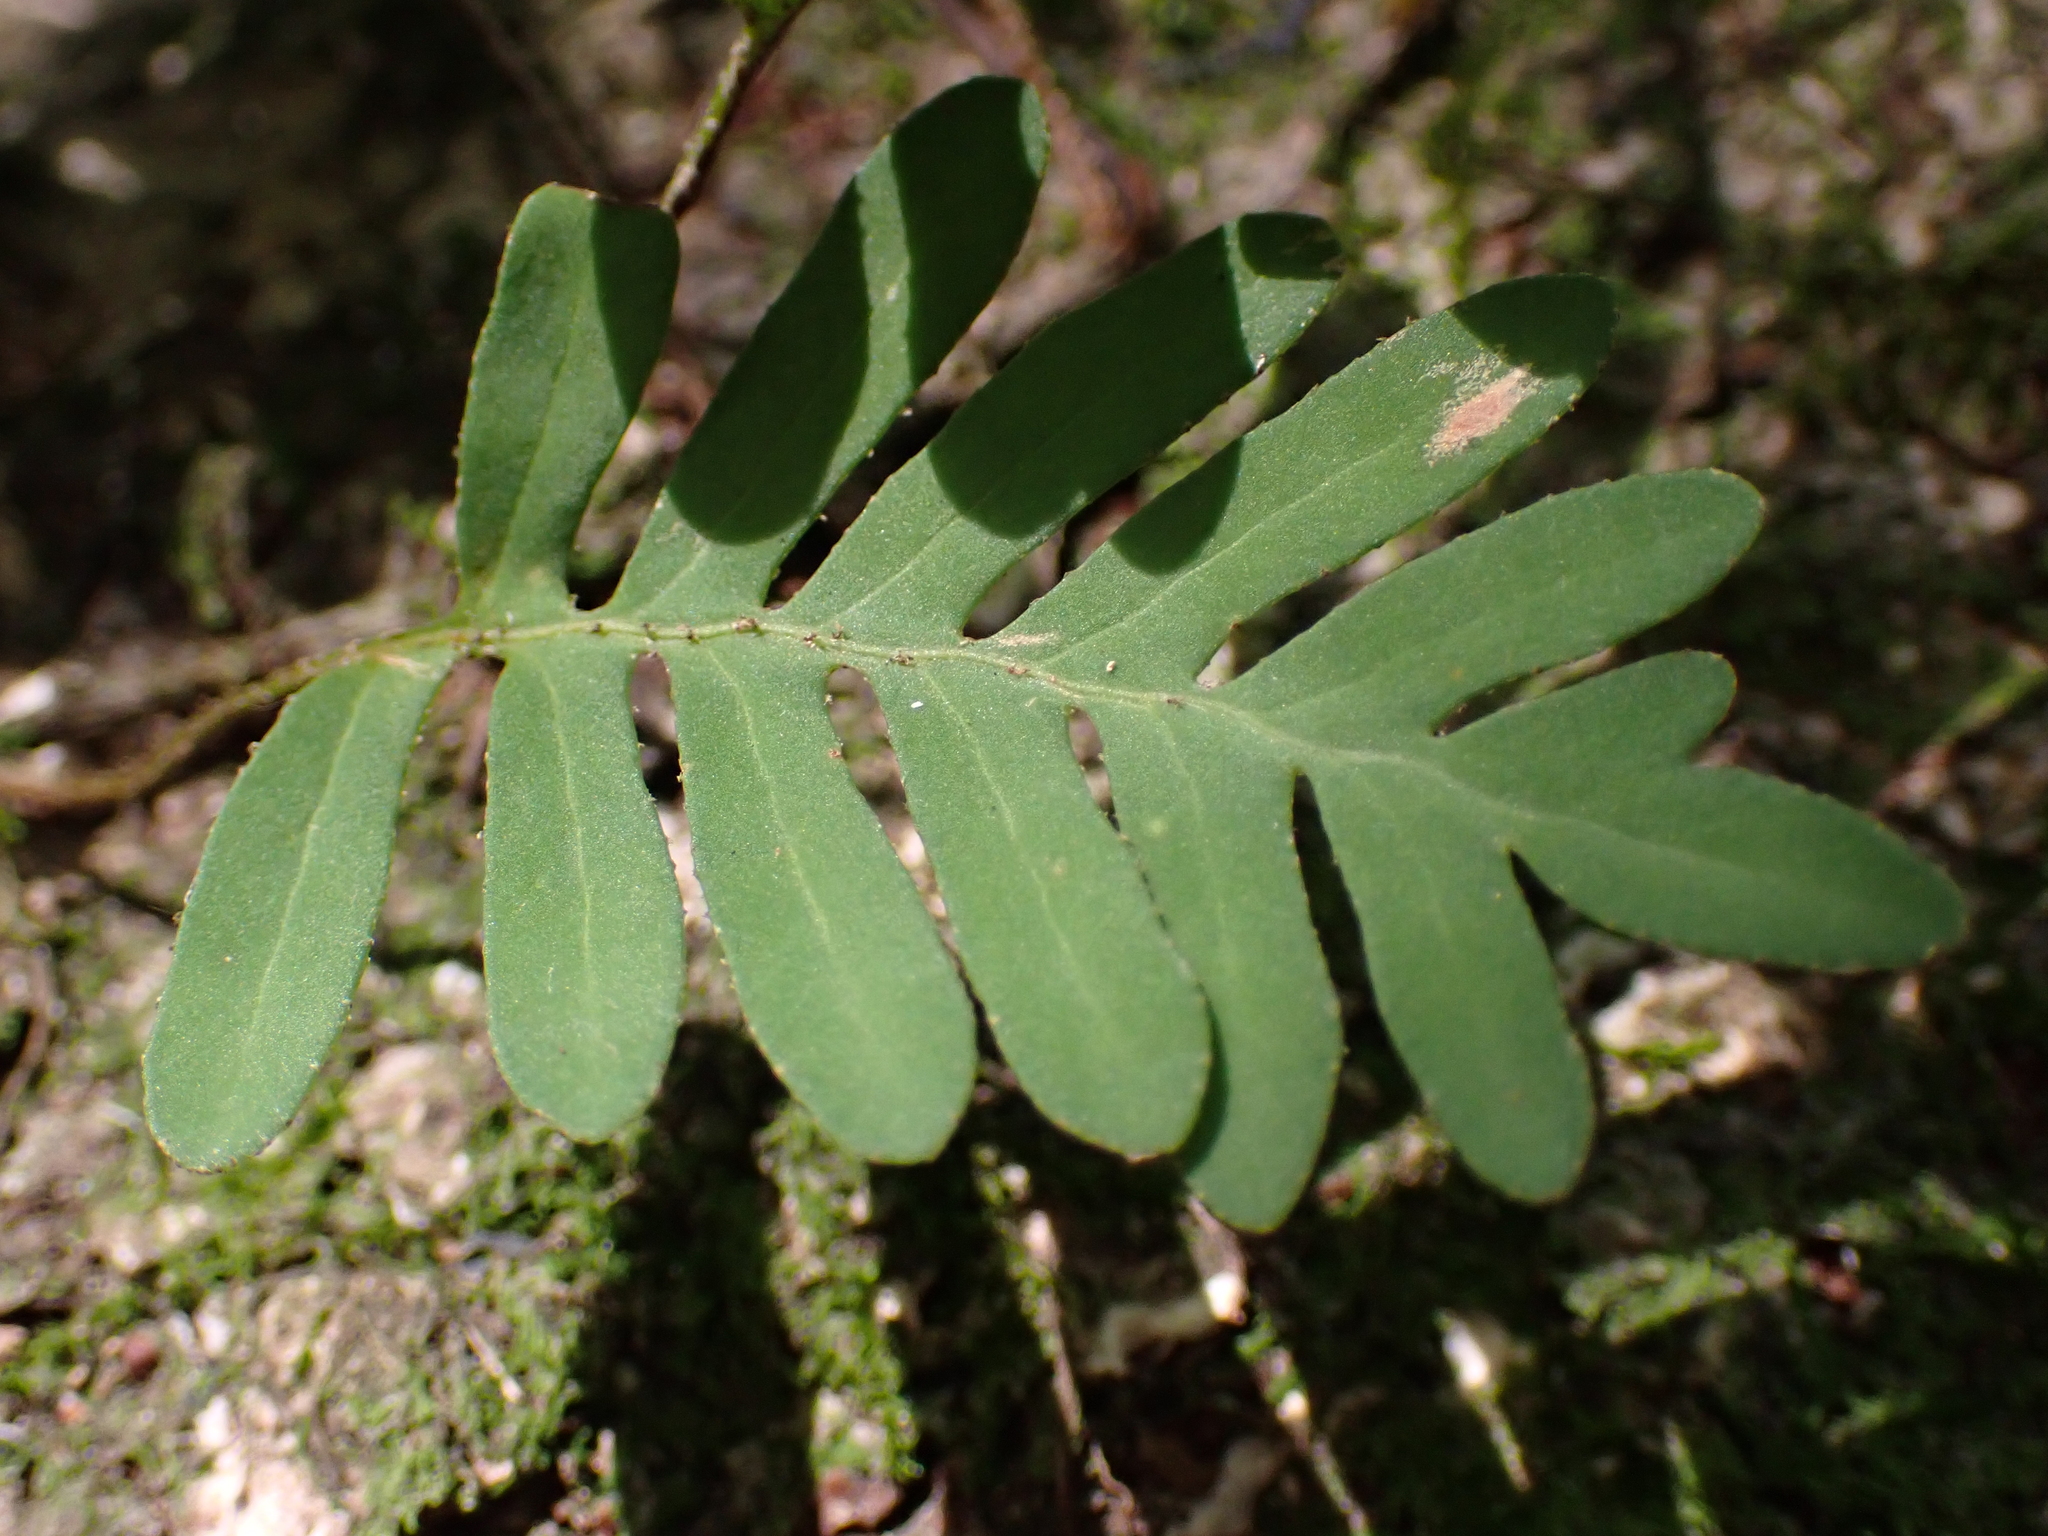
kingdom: Plantae
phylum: Tracheophyta
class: Polypodiopsida
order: Polypodiales
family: Polypodiaceae
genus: Pleopeltis
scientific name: Pleopeltis michauxiana
